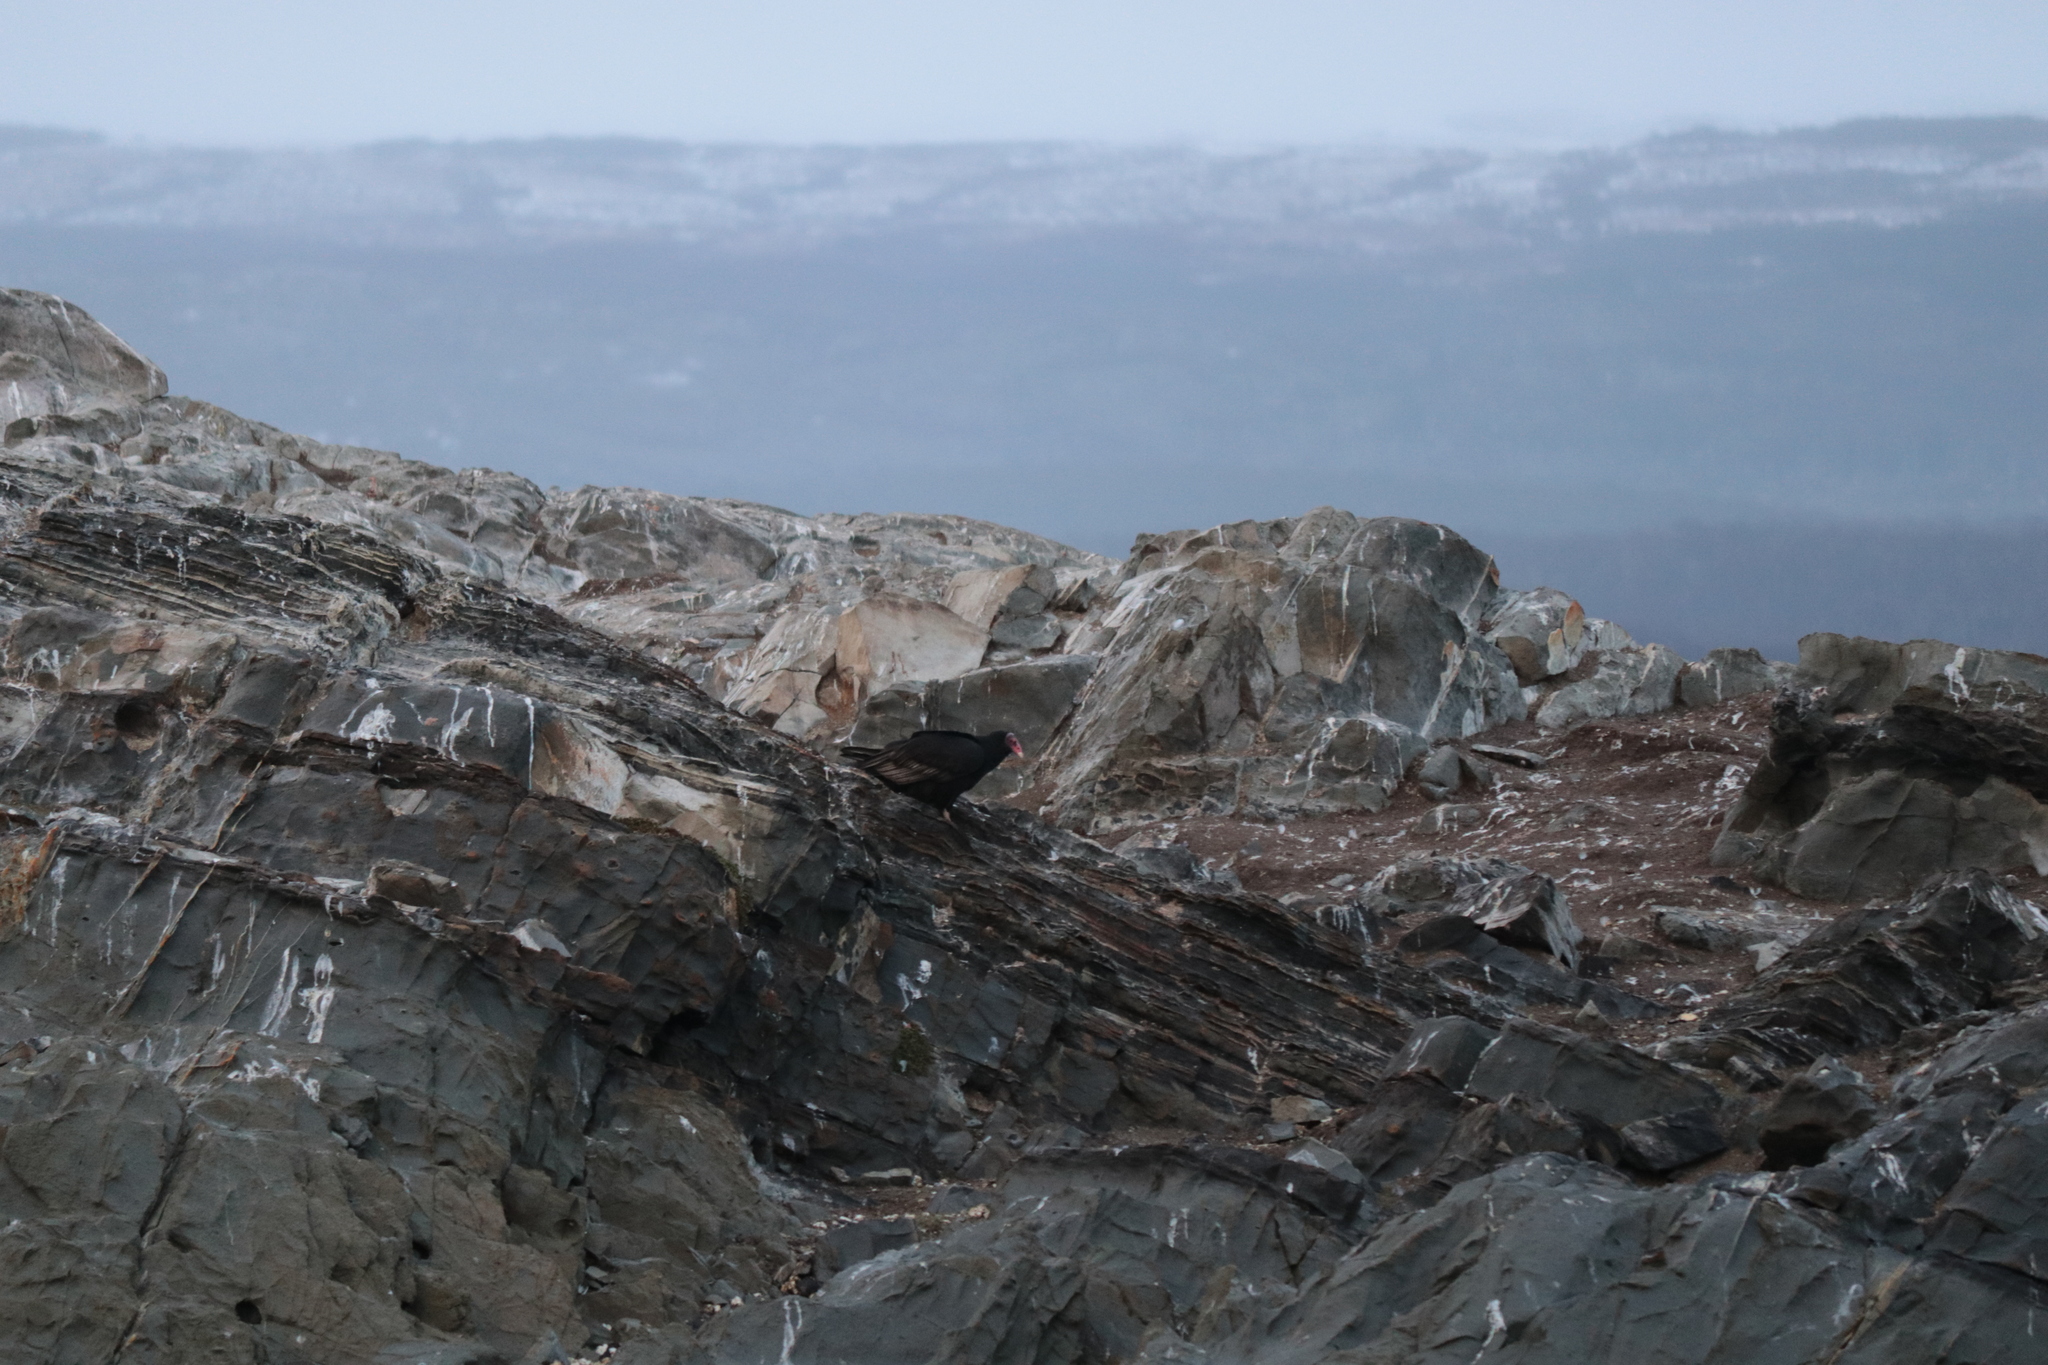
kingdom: Animalia
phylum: Chordata
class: Aves
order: Accipitriformes
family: Cathartidae
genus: Cathartes
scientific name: Cathartes aura
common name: Turkey vulture
